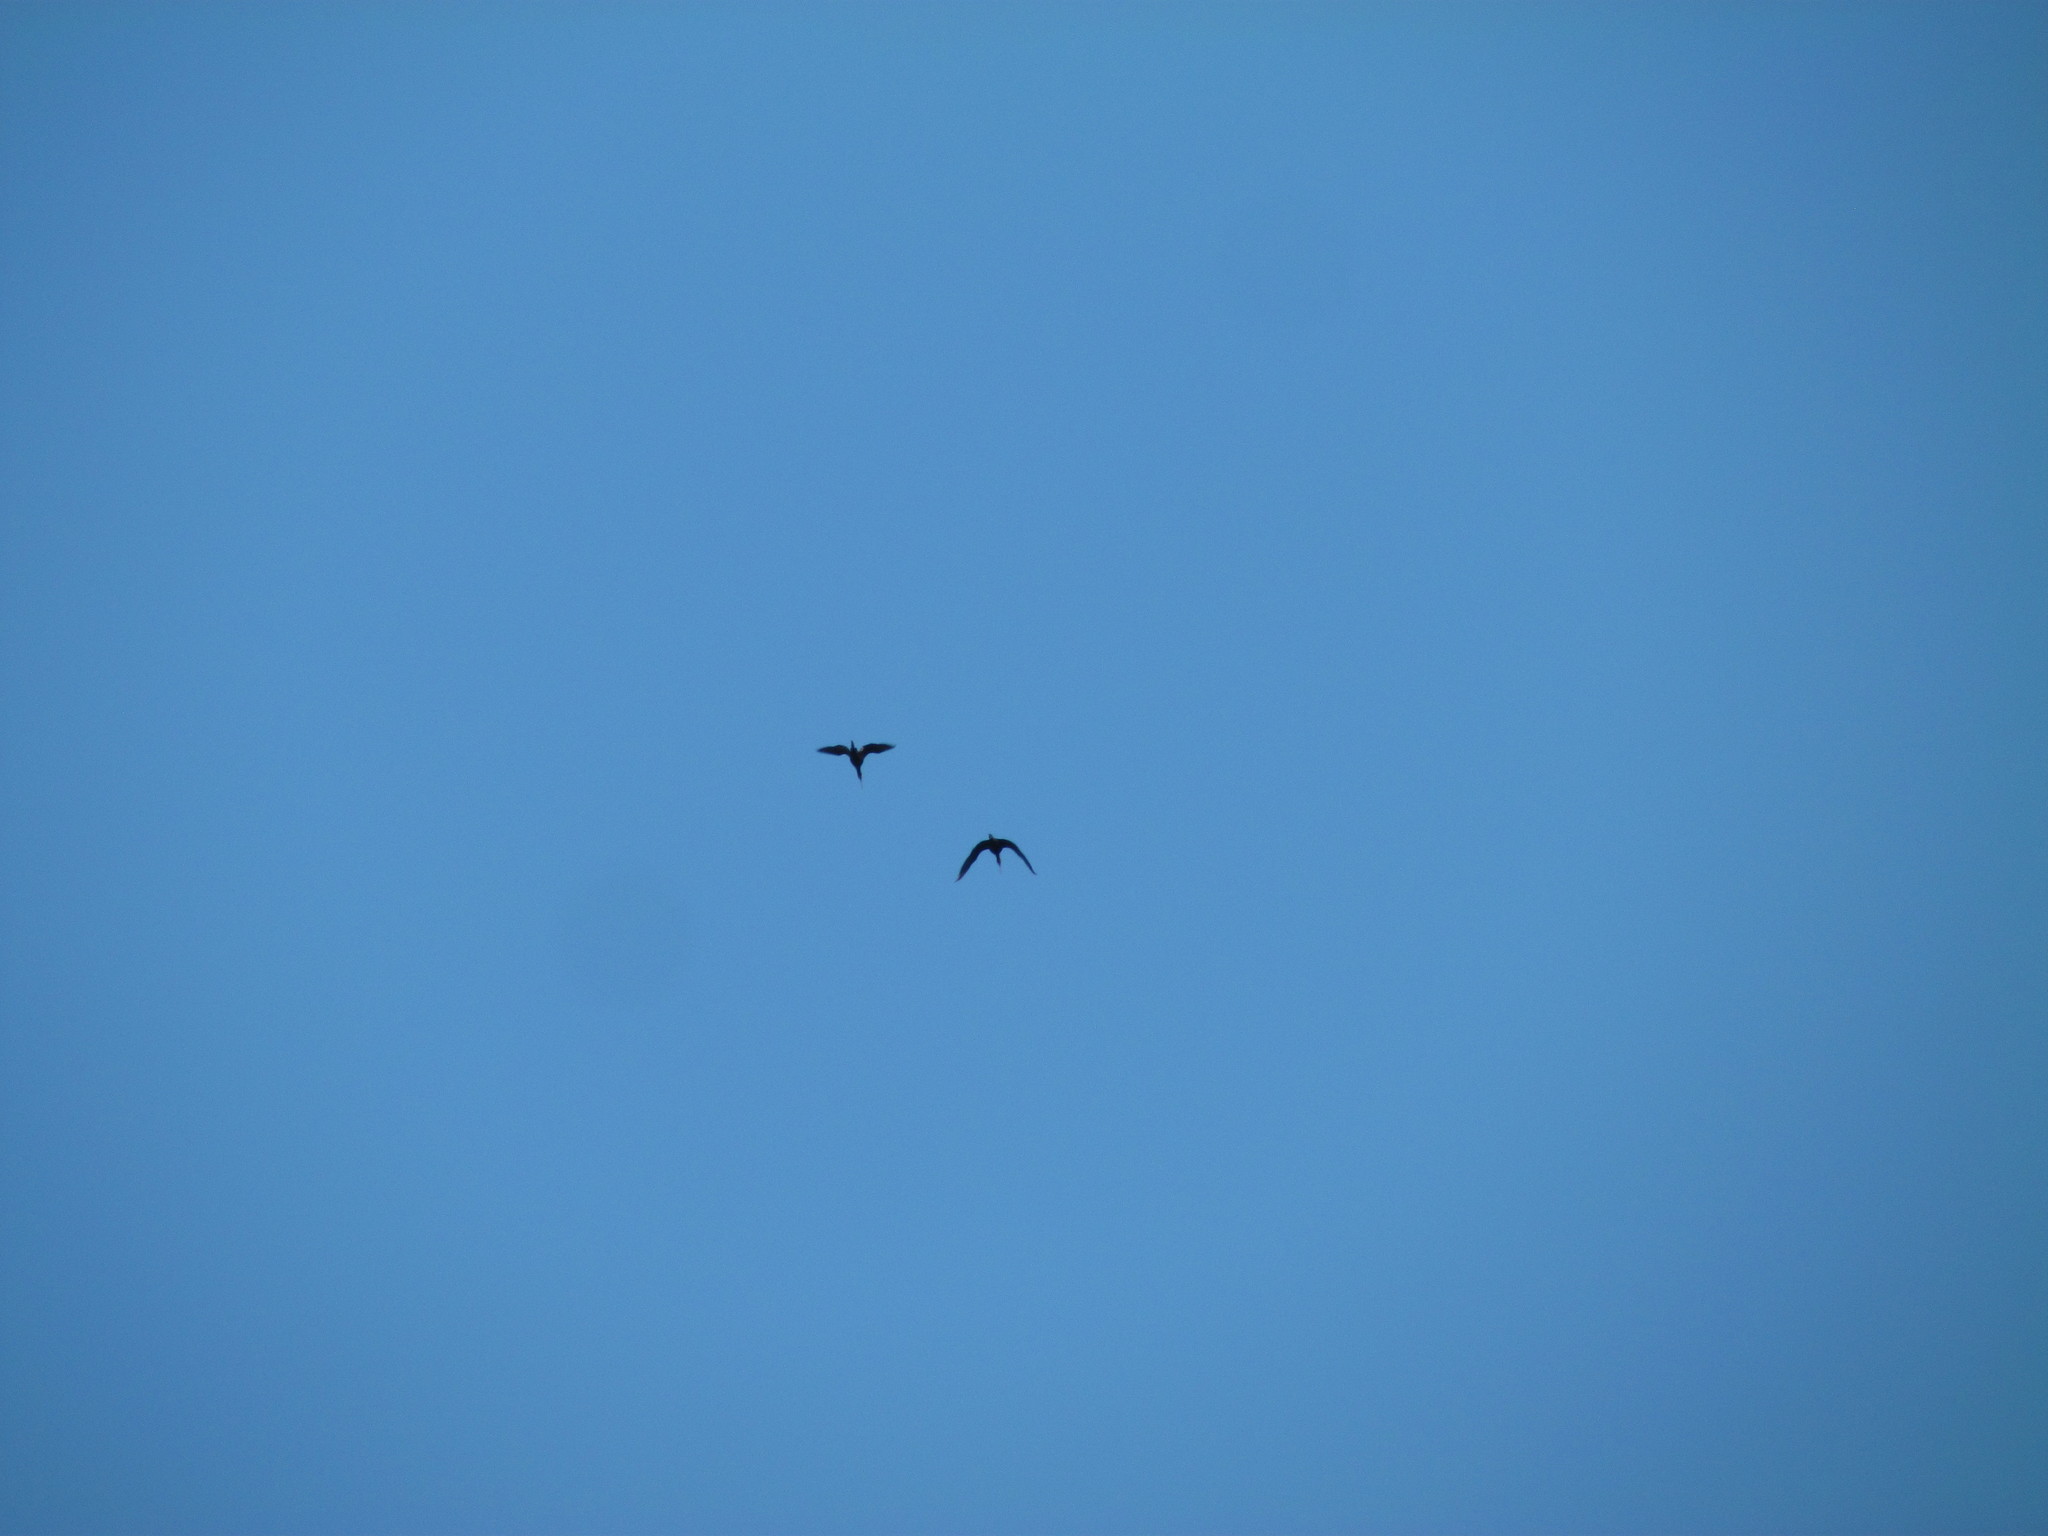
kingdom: Animalia
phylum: Chordata
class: Aves
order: Pelecaniformes
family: Threskiornithidae
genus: Phimosus
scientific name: Phimosus infuscatus
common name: Bare-faced ibis
